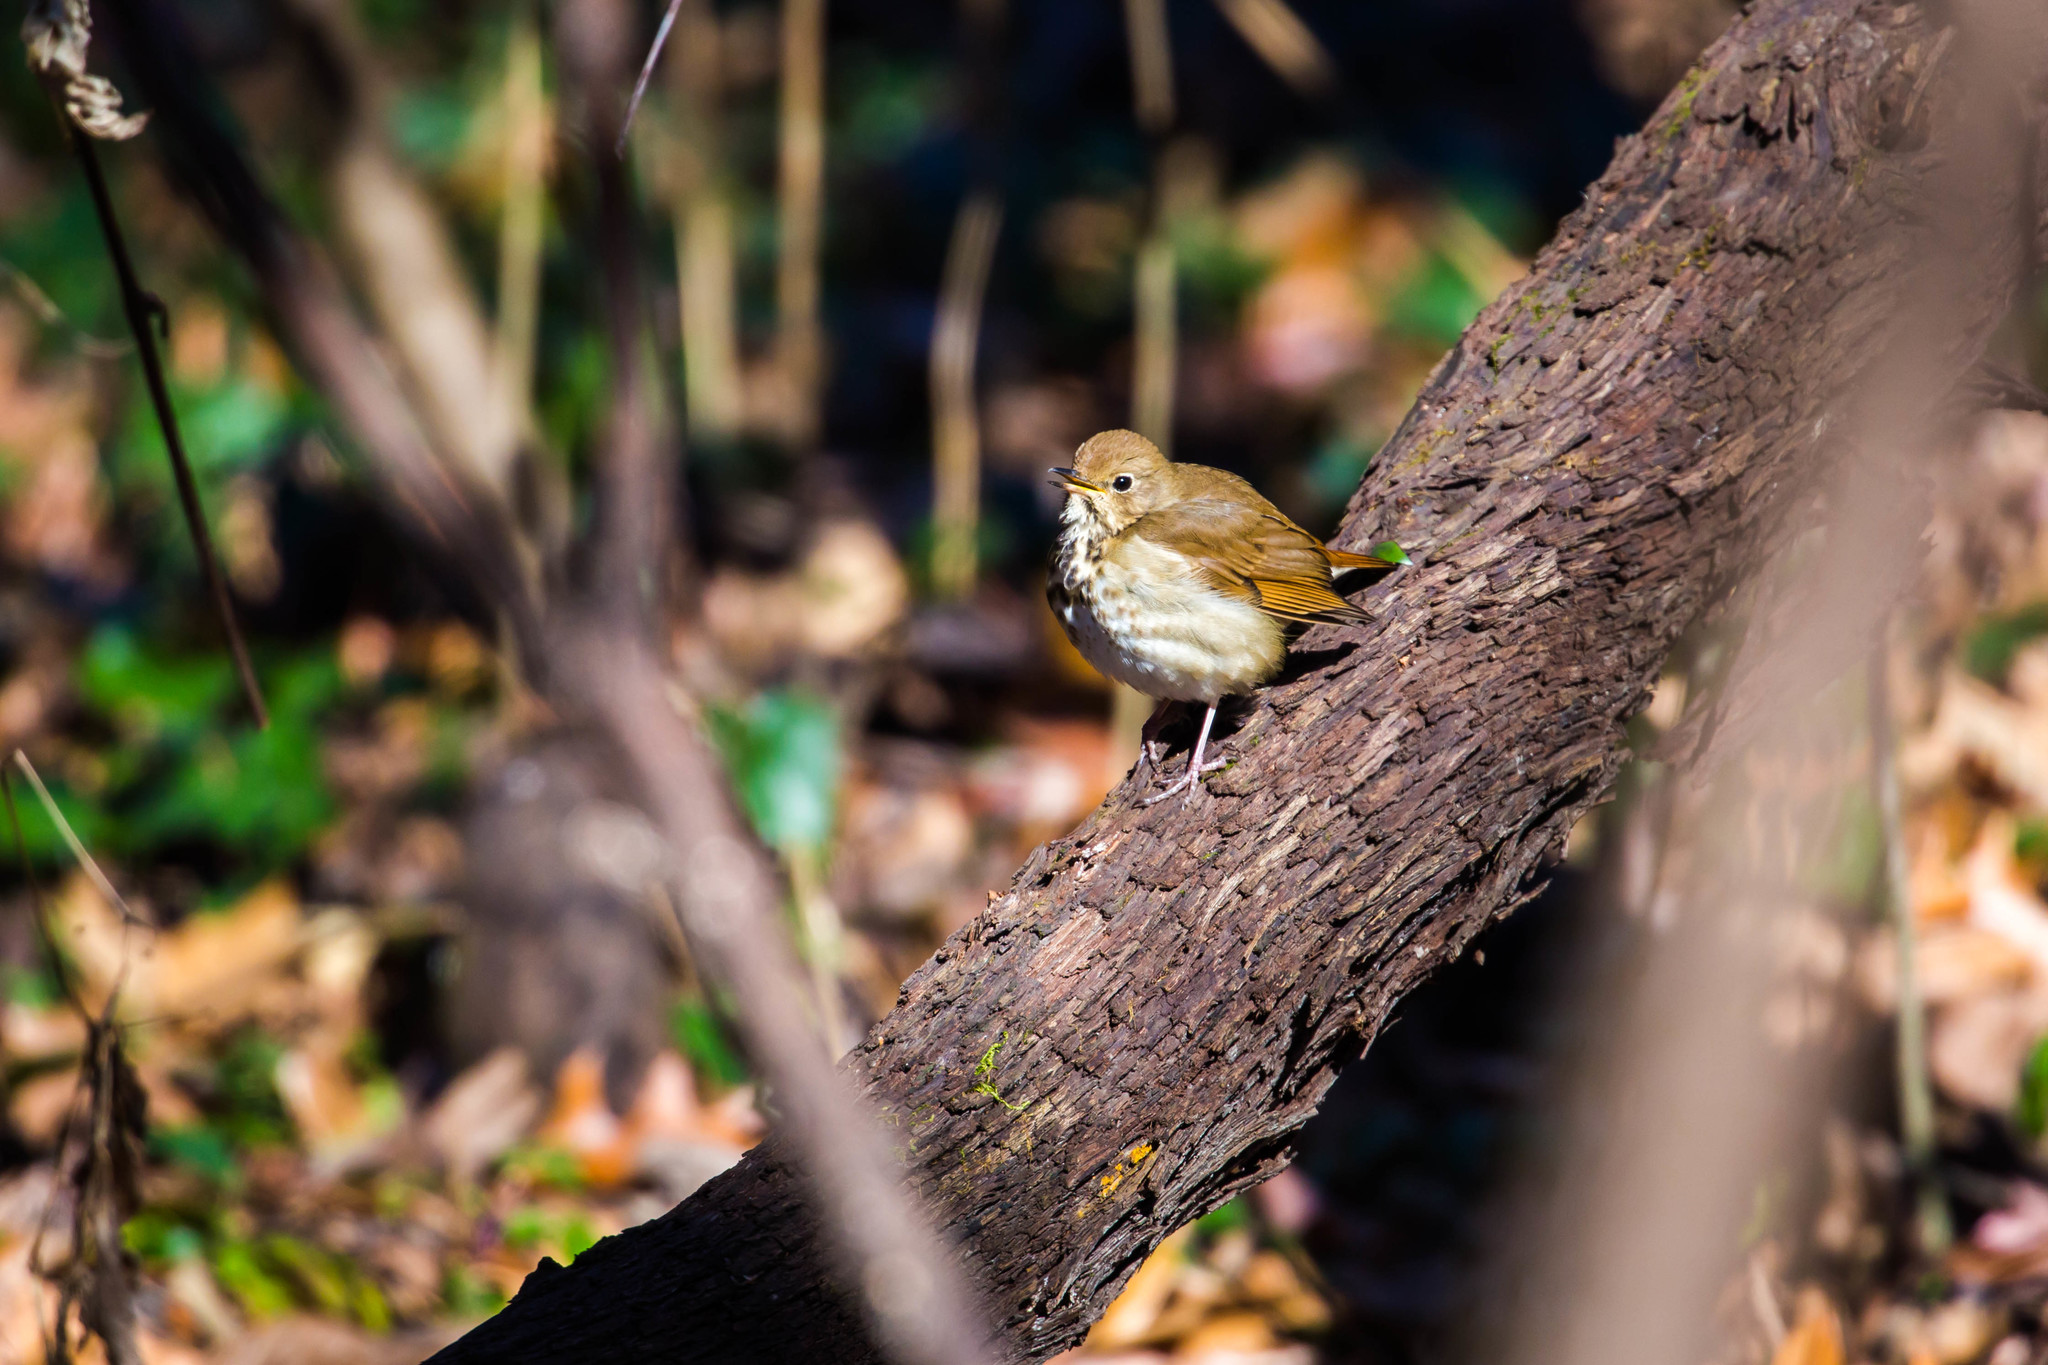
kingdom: Animalia
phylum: Chordata
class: Aves
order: Passeriformes
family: Turdidae
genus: Catharus
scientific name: Catharus guttatus
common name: Hermit thrush
